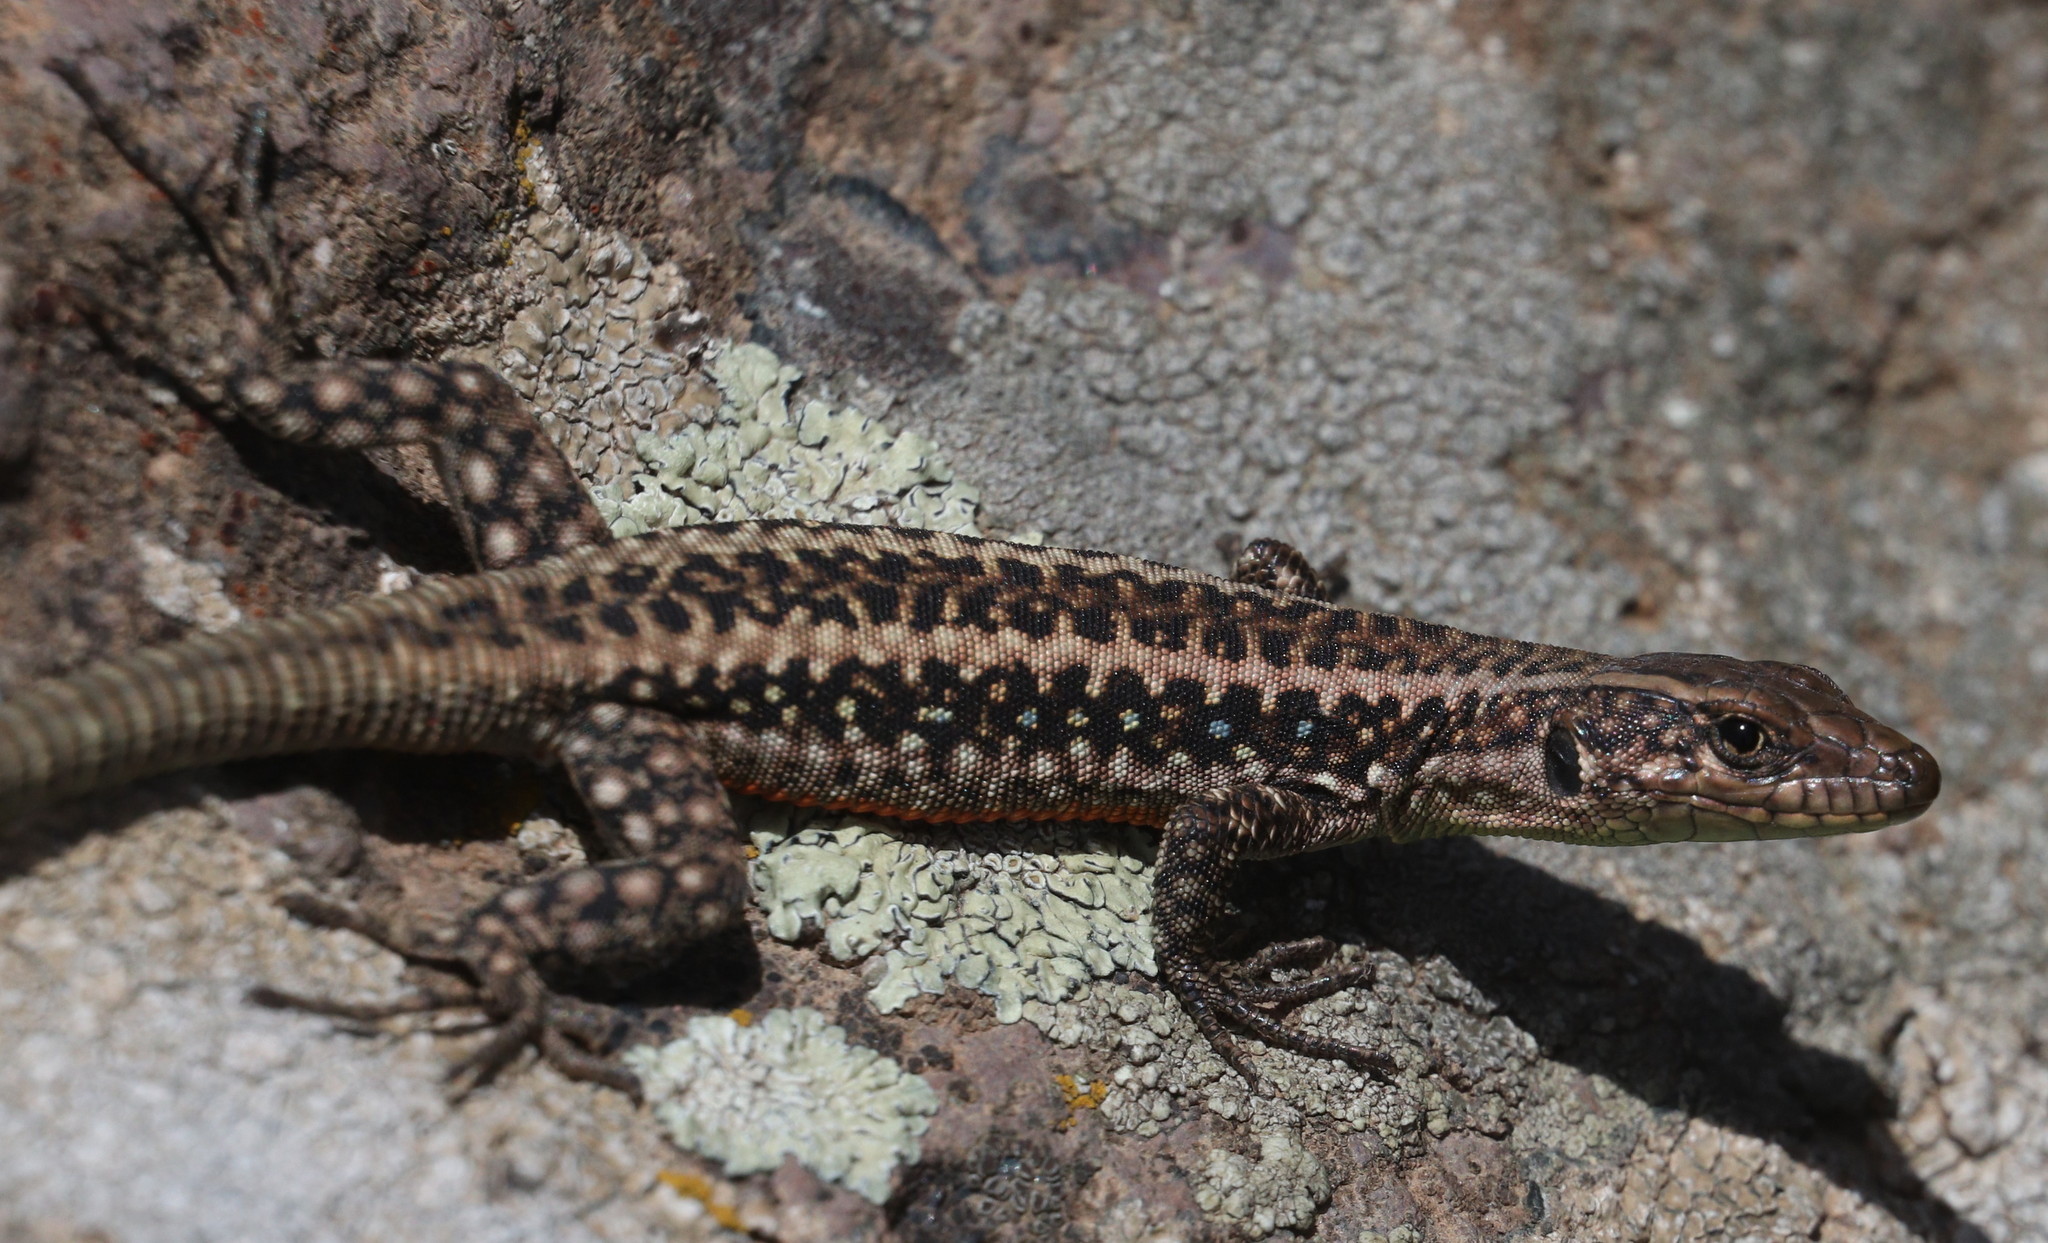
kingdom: Animalia
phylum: Chordata
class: Squamata
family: Lacertidae
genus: Apathya
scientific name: Apathya cappadocica
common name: Anatolian lizard
